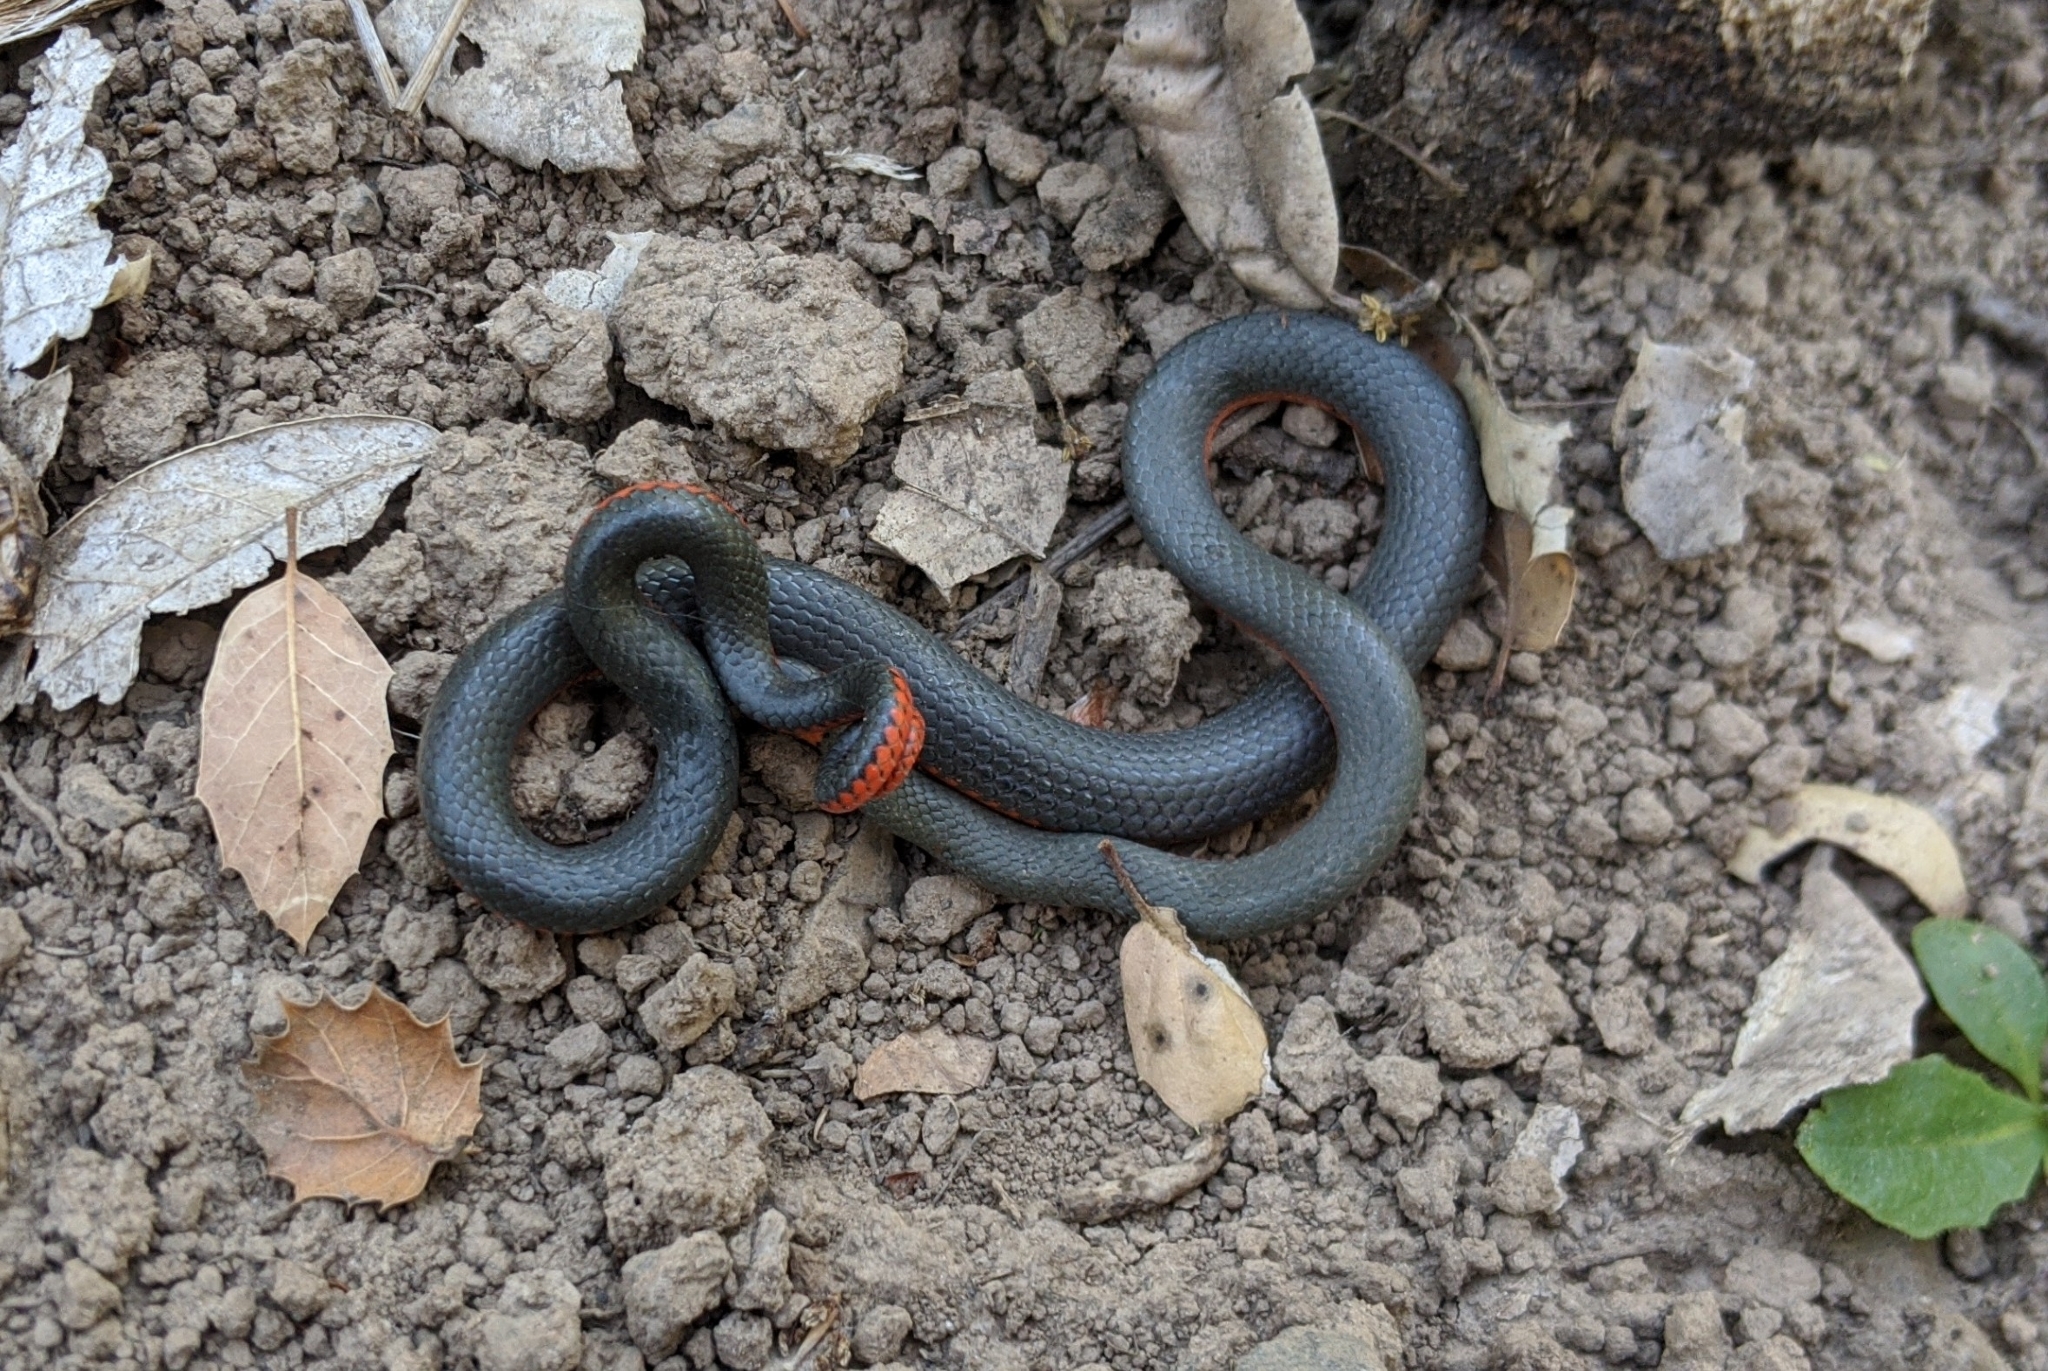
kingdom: Animalia
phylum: Chordata
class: Squamata
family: Colubridae
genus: Diadophis
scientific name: Diadophis punctatus
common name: Ringneck snake
